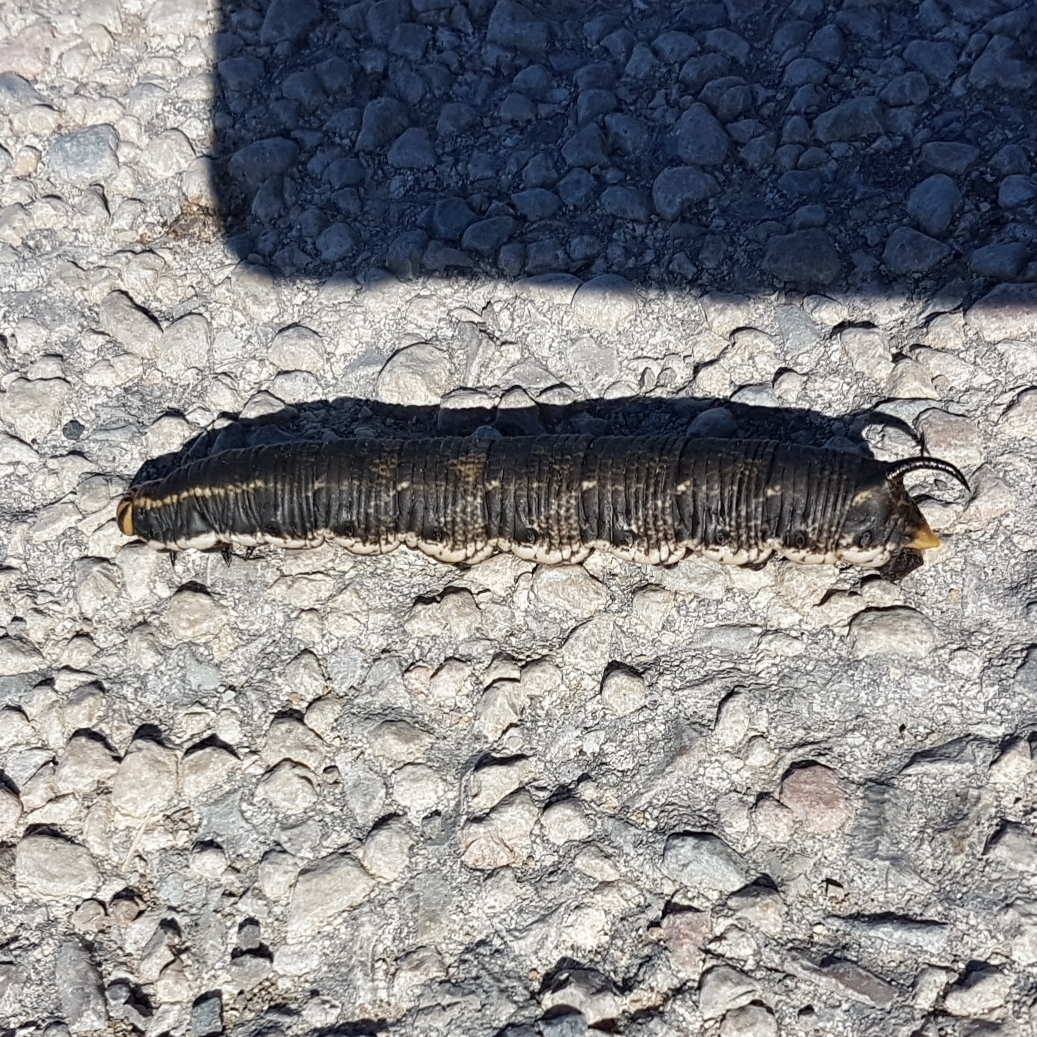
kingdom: Animalia
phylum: Arthropoda
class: Insecta
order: Lepidoptera
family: Sphingidae
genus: Agrius
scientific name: Agrius convolvuli
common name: Convolvulus hawkmoth
